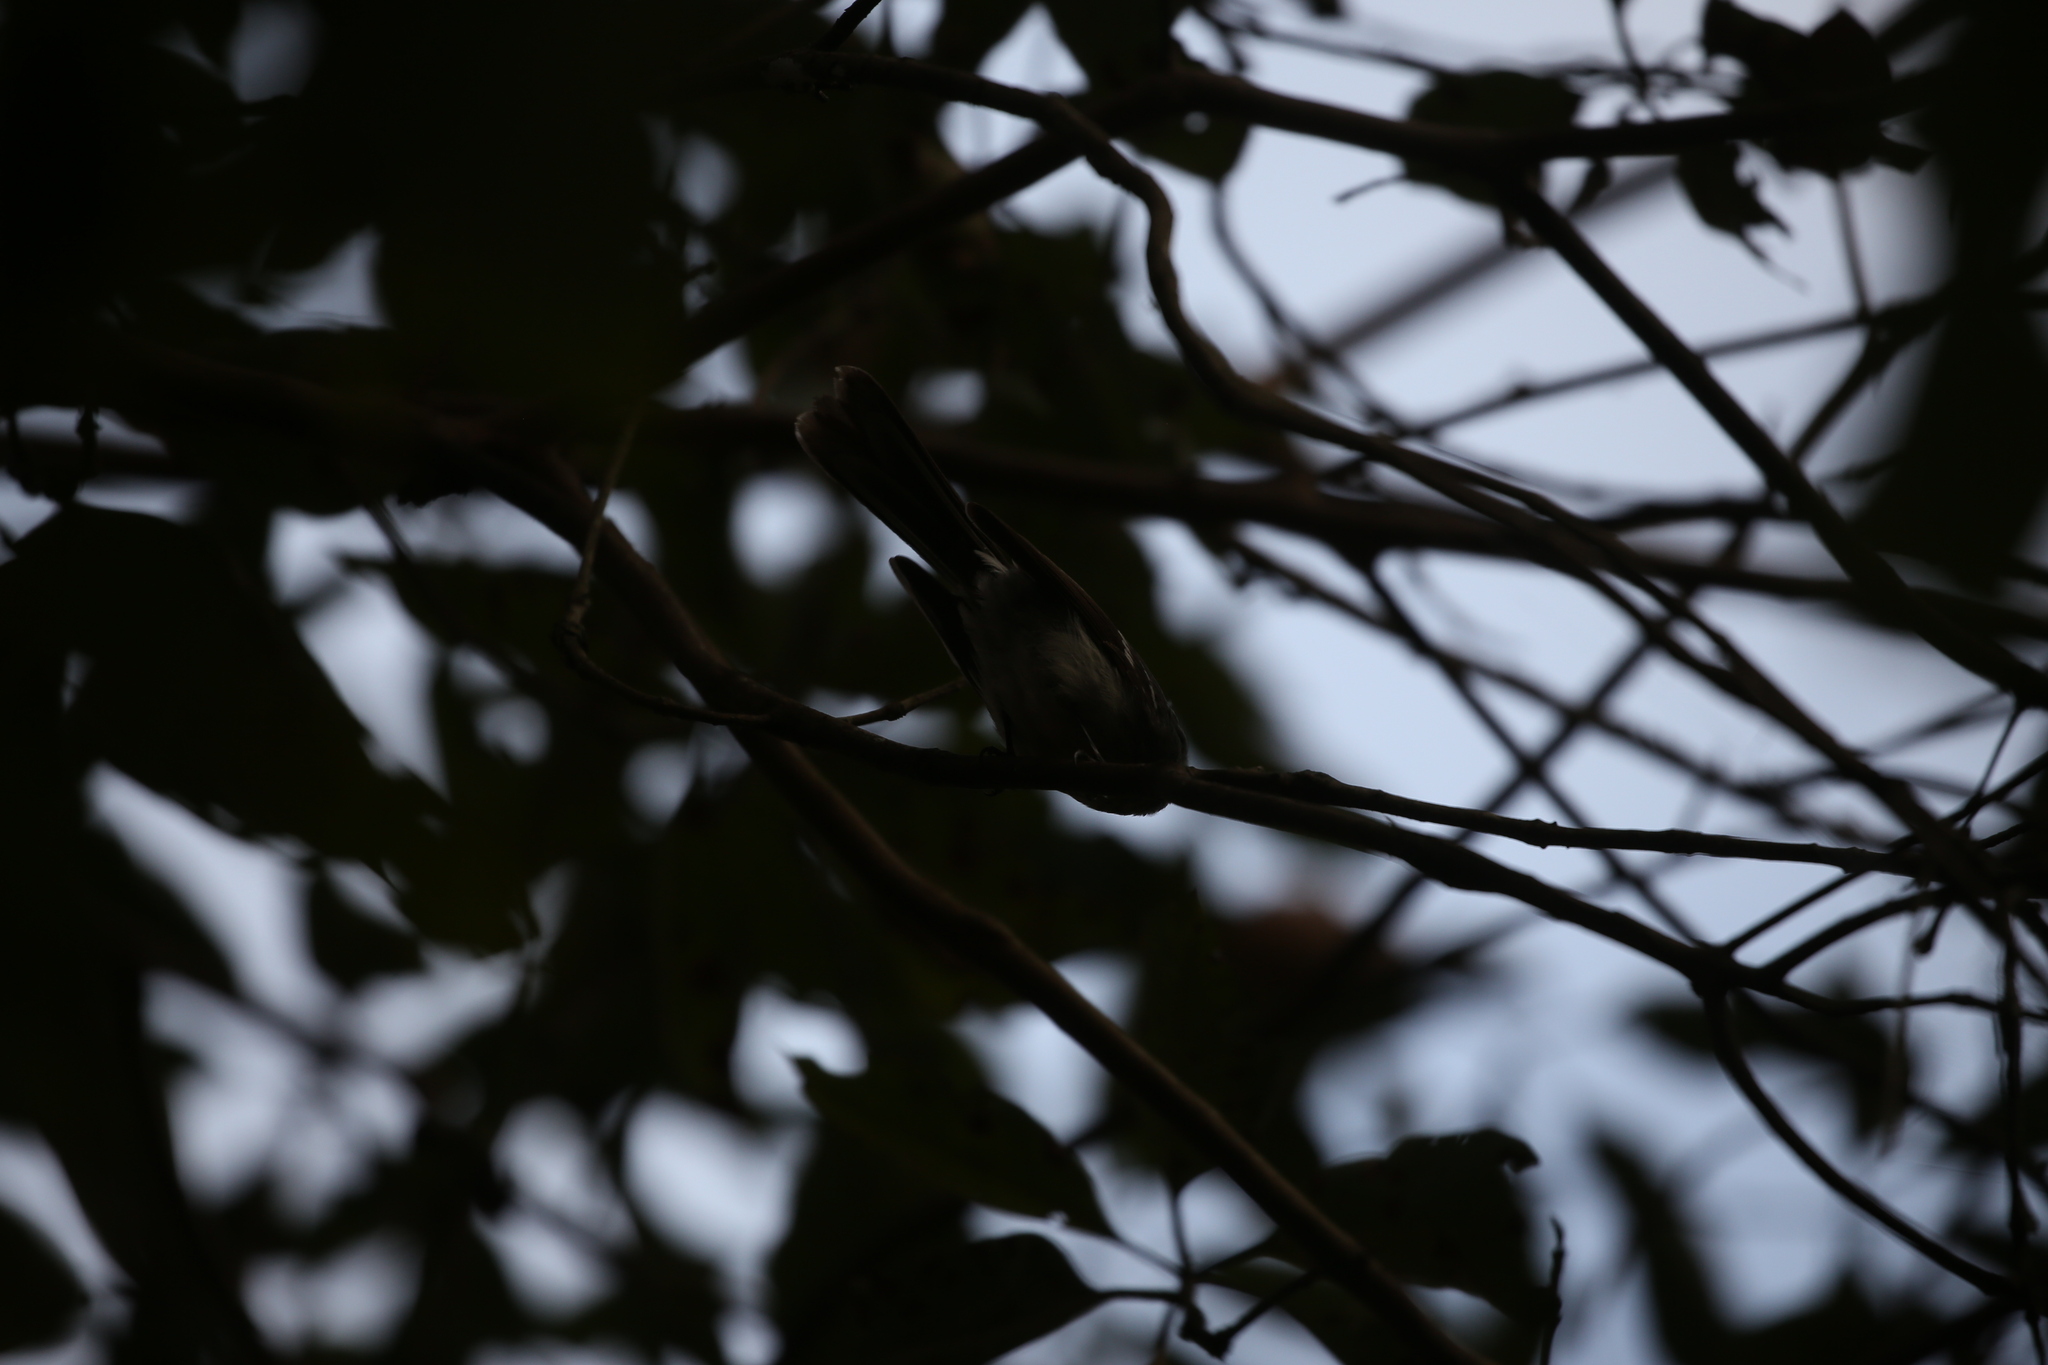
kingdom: Animalia
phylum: Chordata
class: Aves
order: Passeriformes
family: Rhipiduridae
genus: Rhipidura
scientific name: Rhipidura albiscapa
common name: Grey fantail
